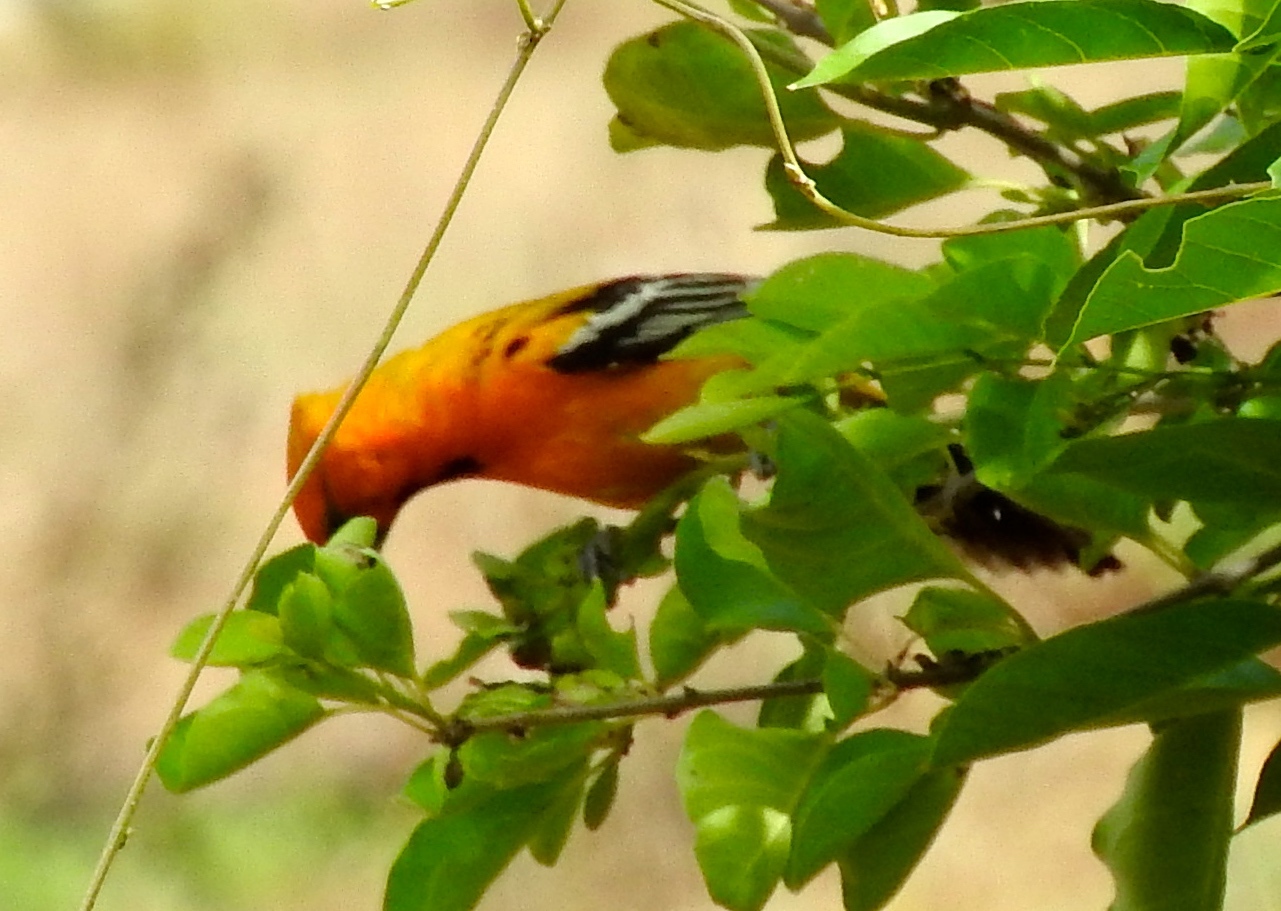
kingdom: Animalia
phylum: Chordata
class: Aves
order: Passeriformes
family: Icteridae
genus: Icterus
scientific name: Icterus pustulatus
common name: Streak-backed oriole
